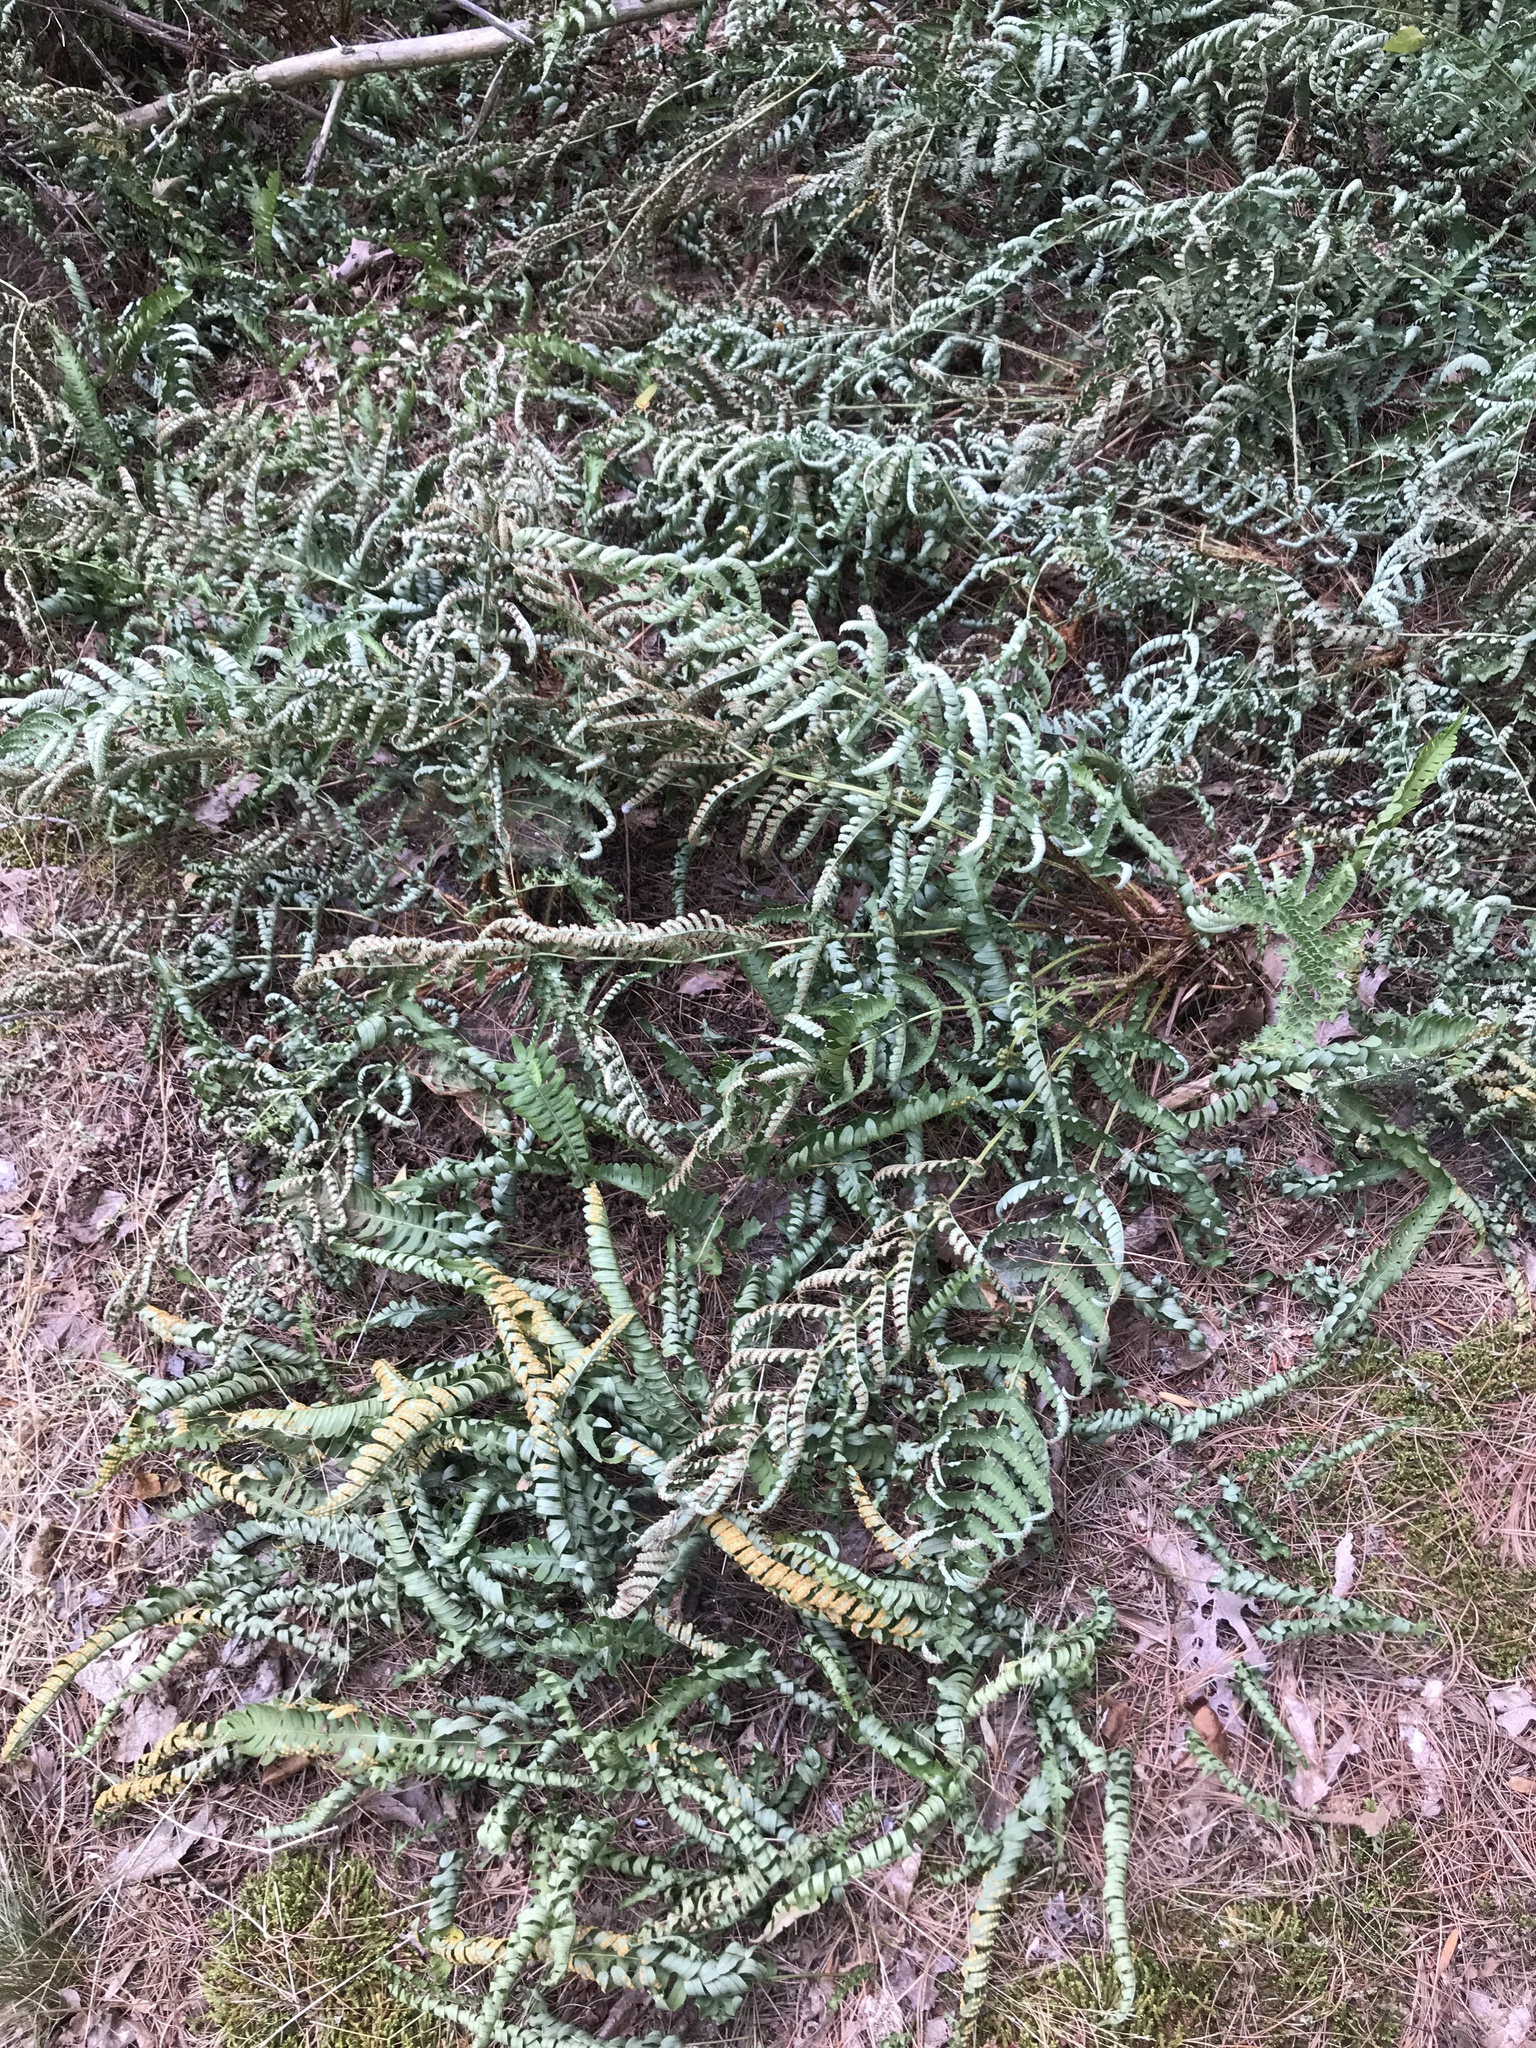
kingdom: Plantae
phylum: Tracheophyta
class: Polypodiopsida
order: Polypodiales
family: Dryopteridaceae
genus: Dryopteris
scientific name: Dryopteris marginalis
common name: Marginal wood fern
